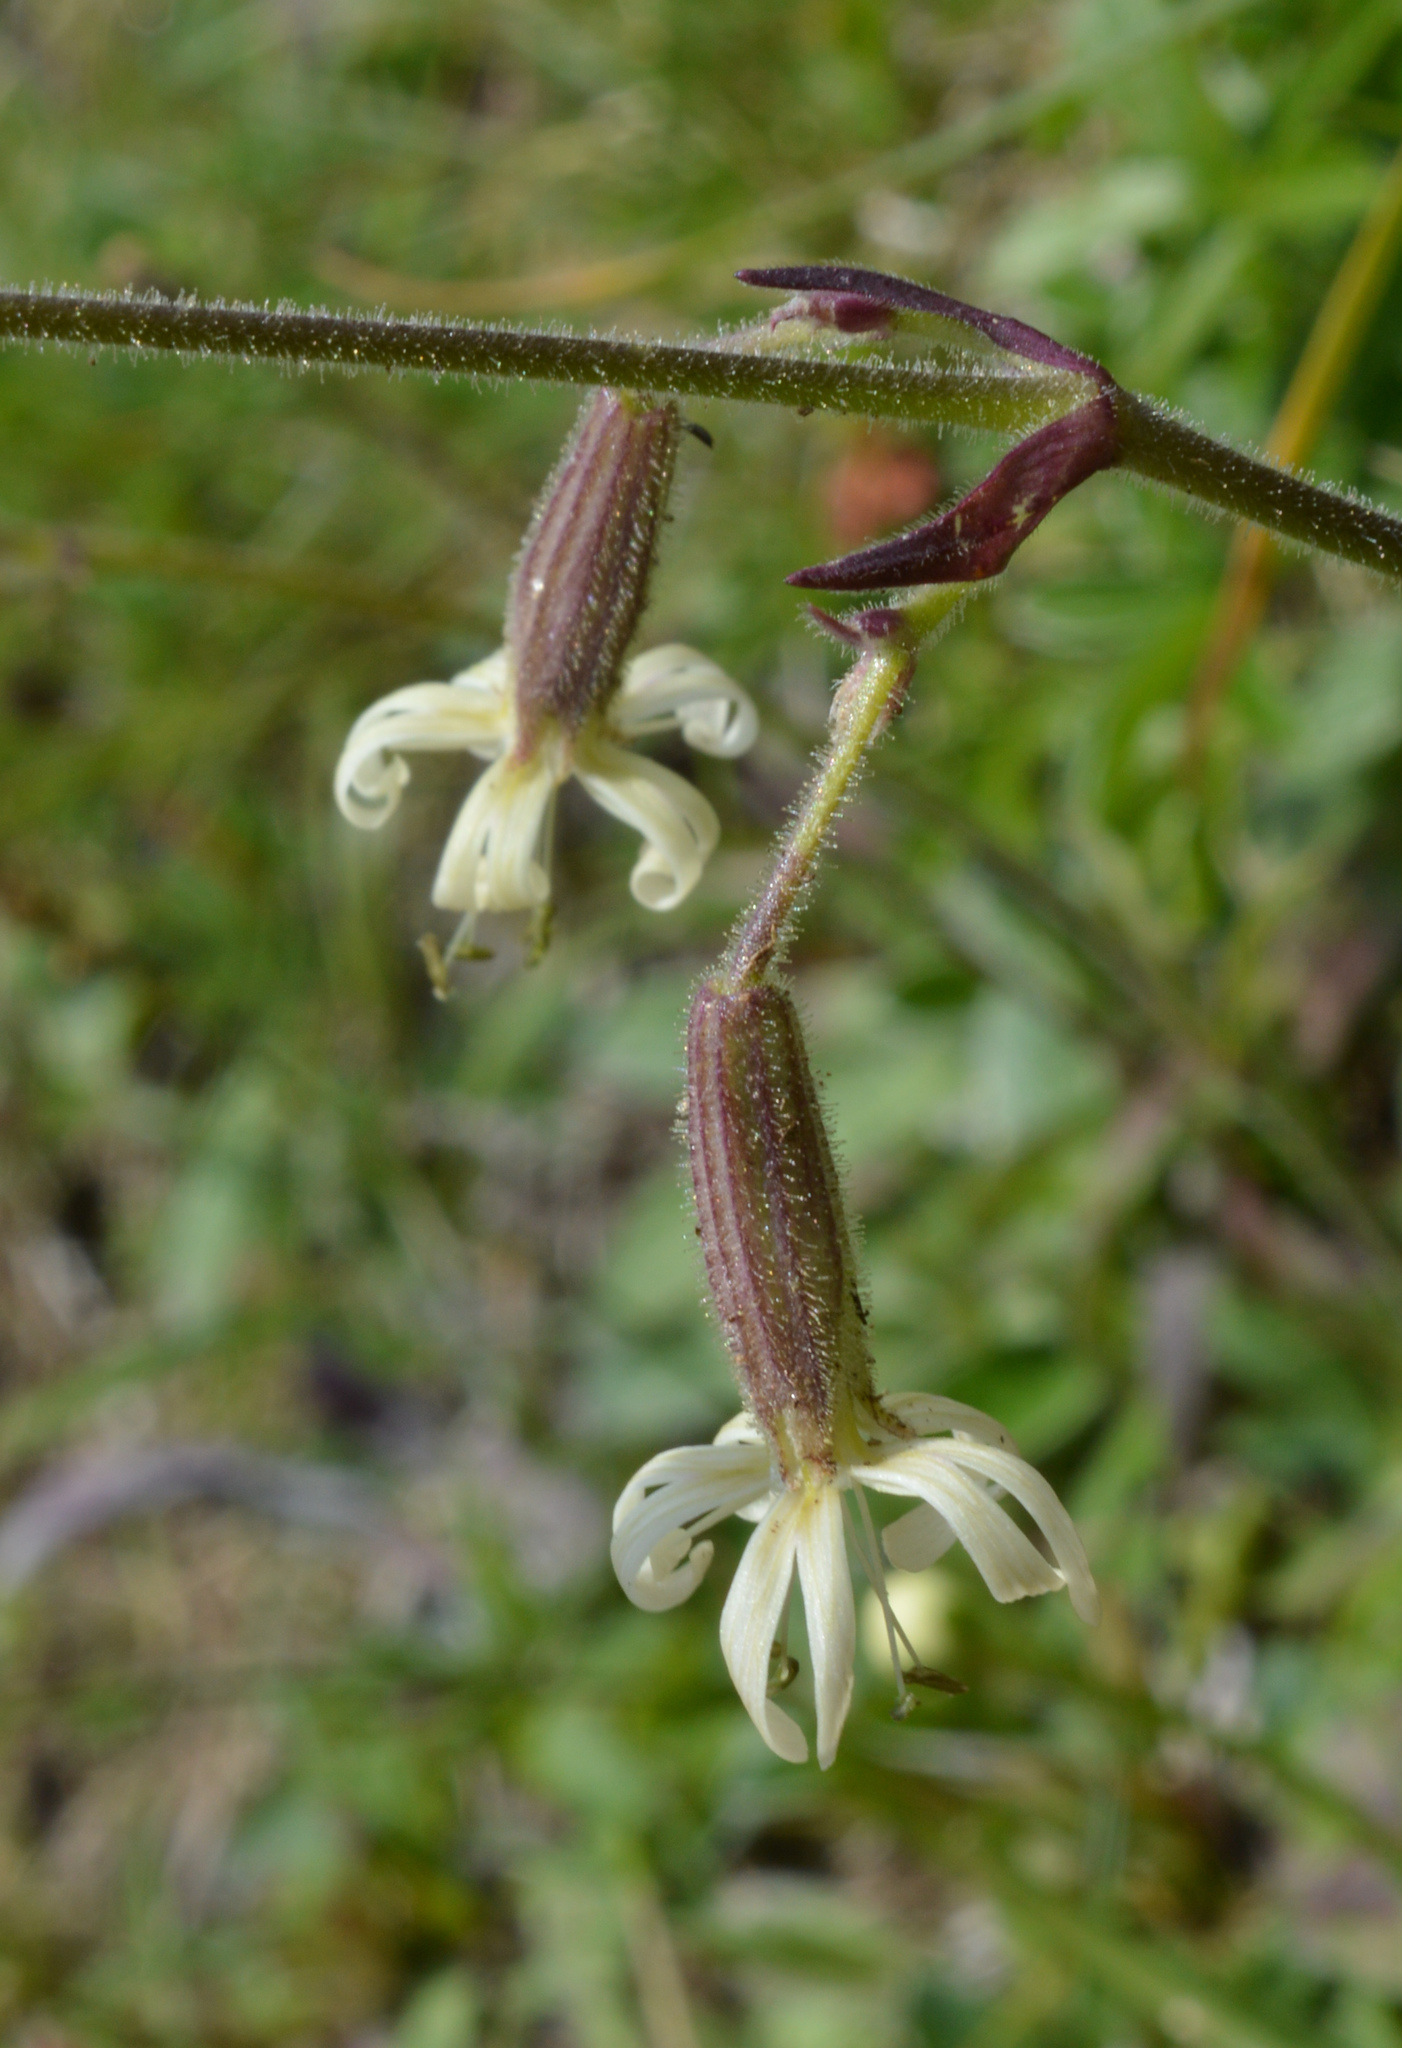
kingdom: Plantae
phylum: Tracheophyta
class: Magnoliopsida
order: Caryophyllales
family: Caryophyllaceae
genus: Silene
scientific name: Silene nutans
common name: Nottingham catchfly
